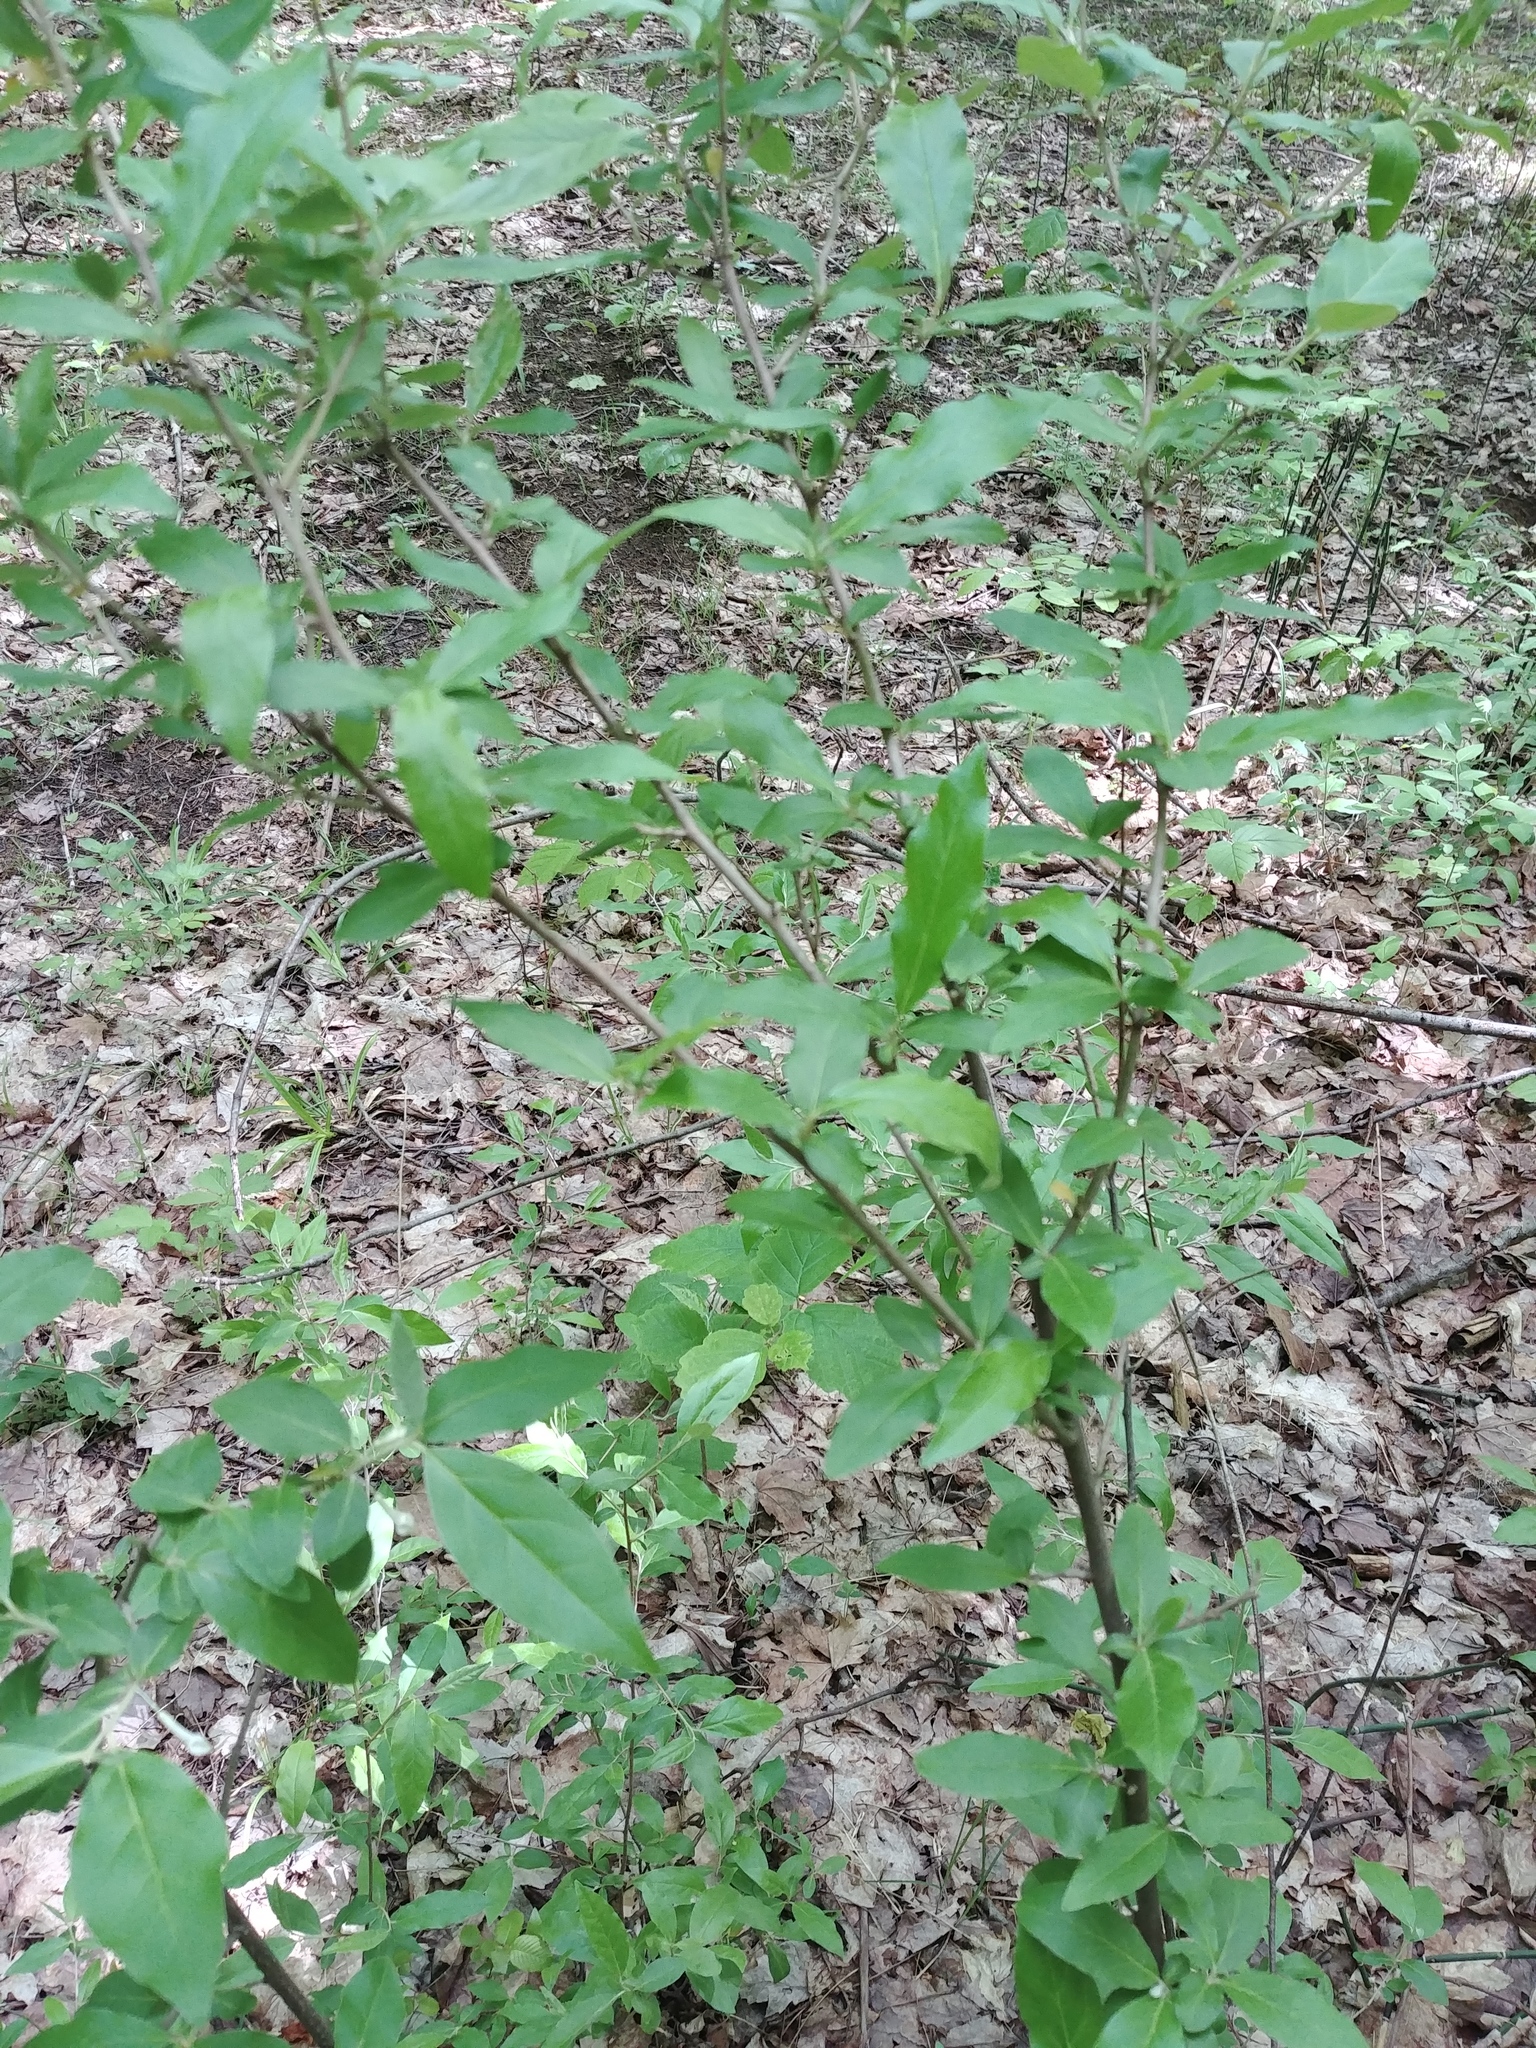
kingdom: Plantae
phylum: Tracheophyta
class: Magnoliopsida
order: Rosales
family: Elaeagnaceae
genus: Elaeagnus
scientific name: Elaeagnus umbellata
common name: Autumn olive
